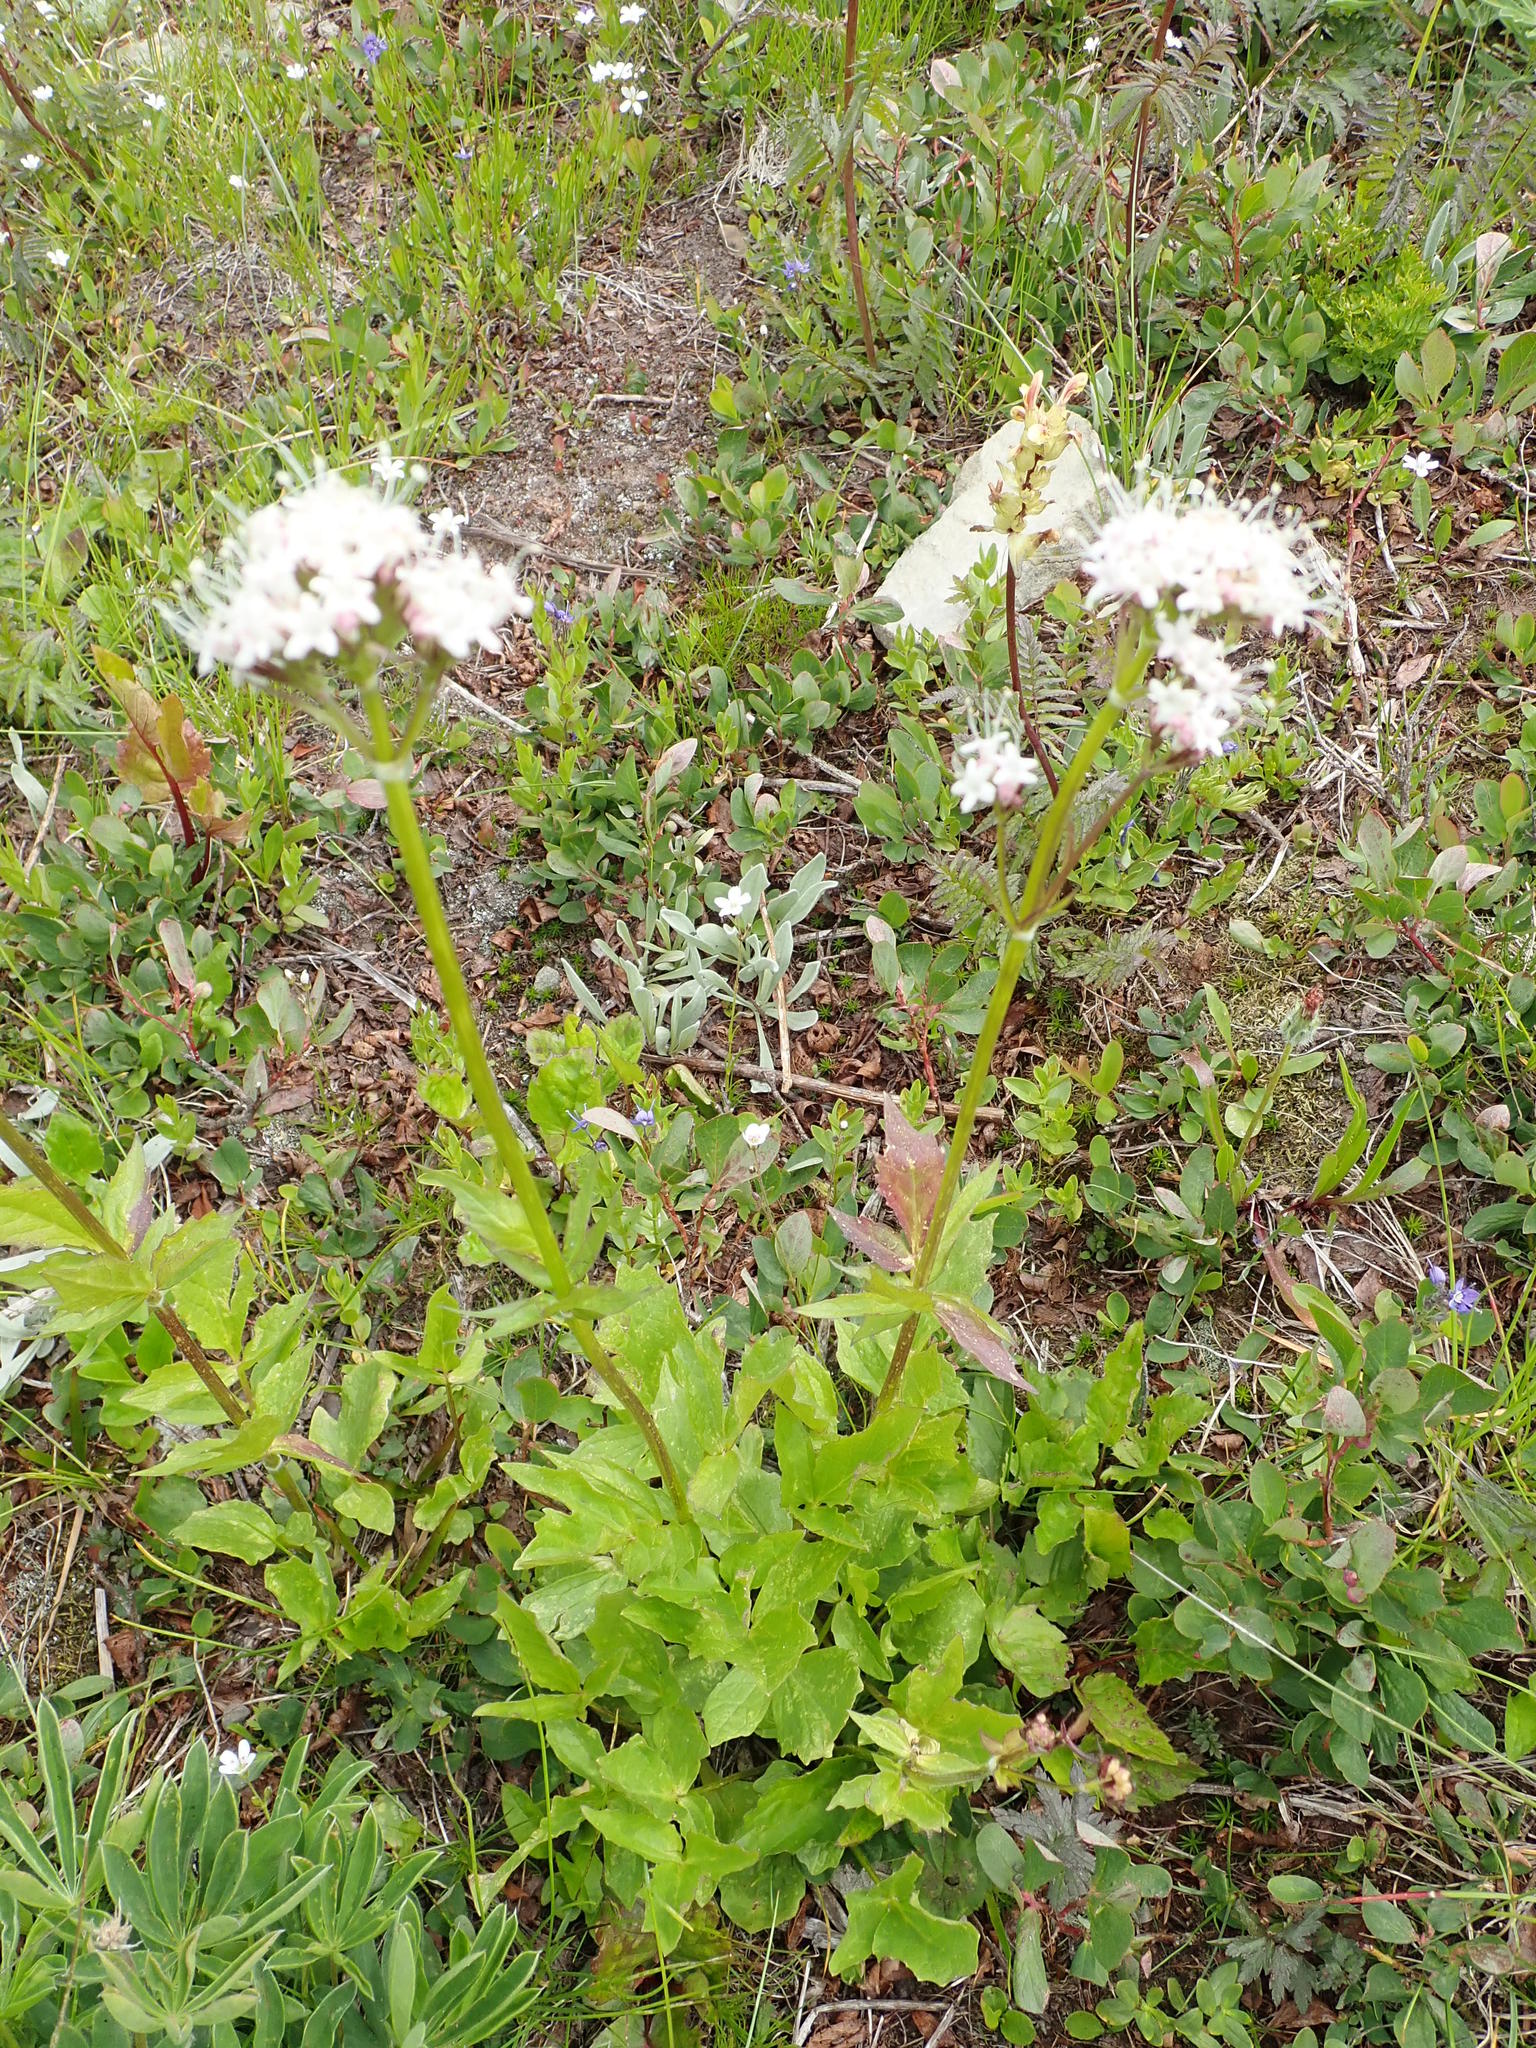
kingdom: Plantae
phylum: Tracheophyta
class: Magnoliopsida
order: Dipsacales
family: Caprifoliaceae
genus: Valeriana
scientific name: Valeriana sitchensis
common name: Pacific valerian
